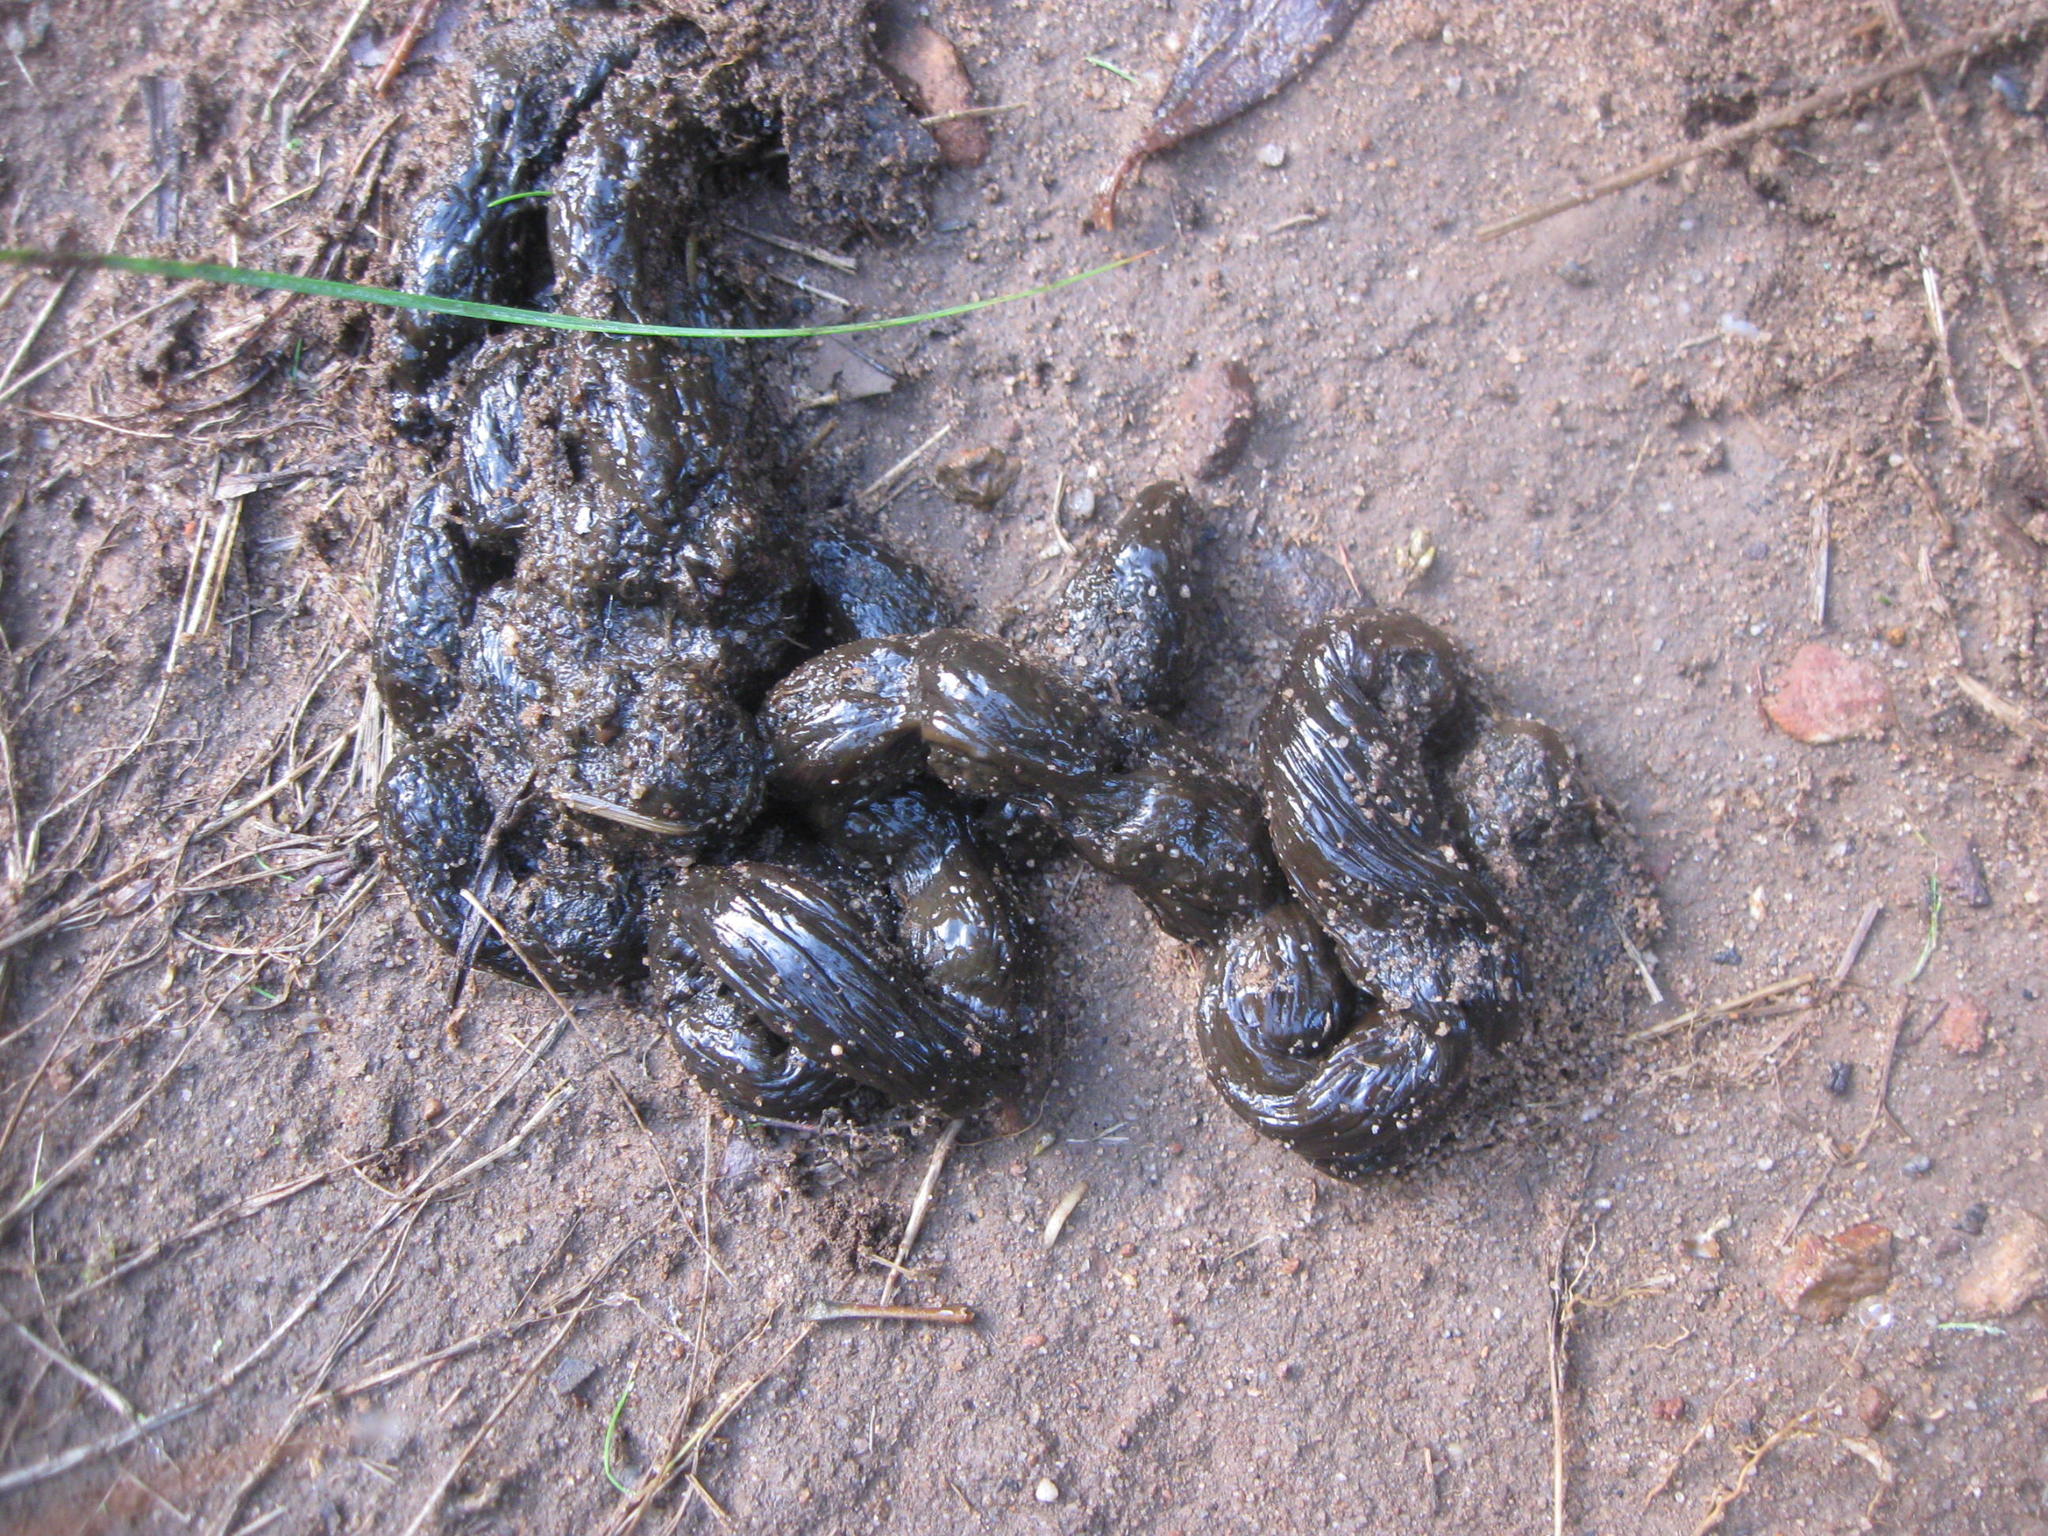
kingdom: Animalia
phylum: Chordata
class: Mammalia
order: Rodentia
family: Hystricidae
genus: Hystrix
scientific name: Hystrix africaeaustralis
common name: Cape porcupine
